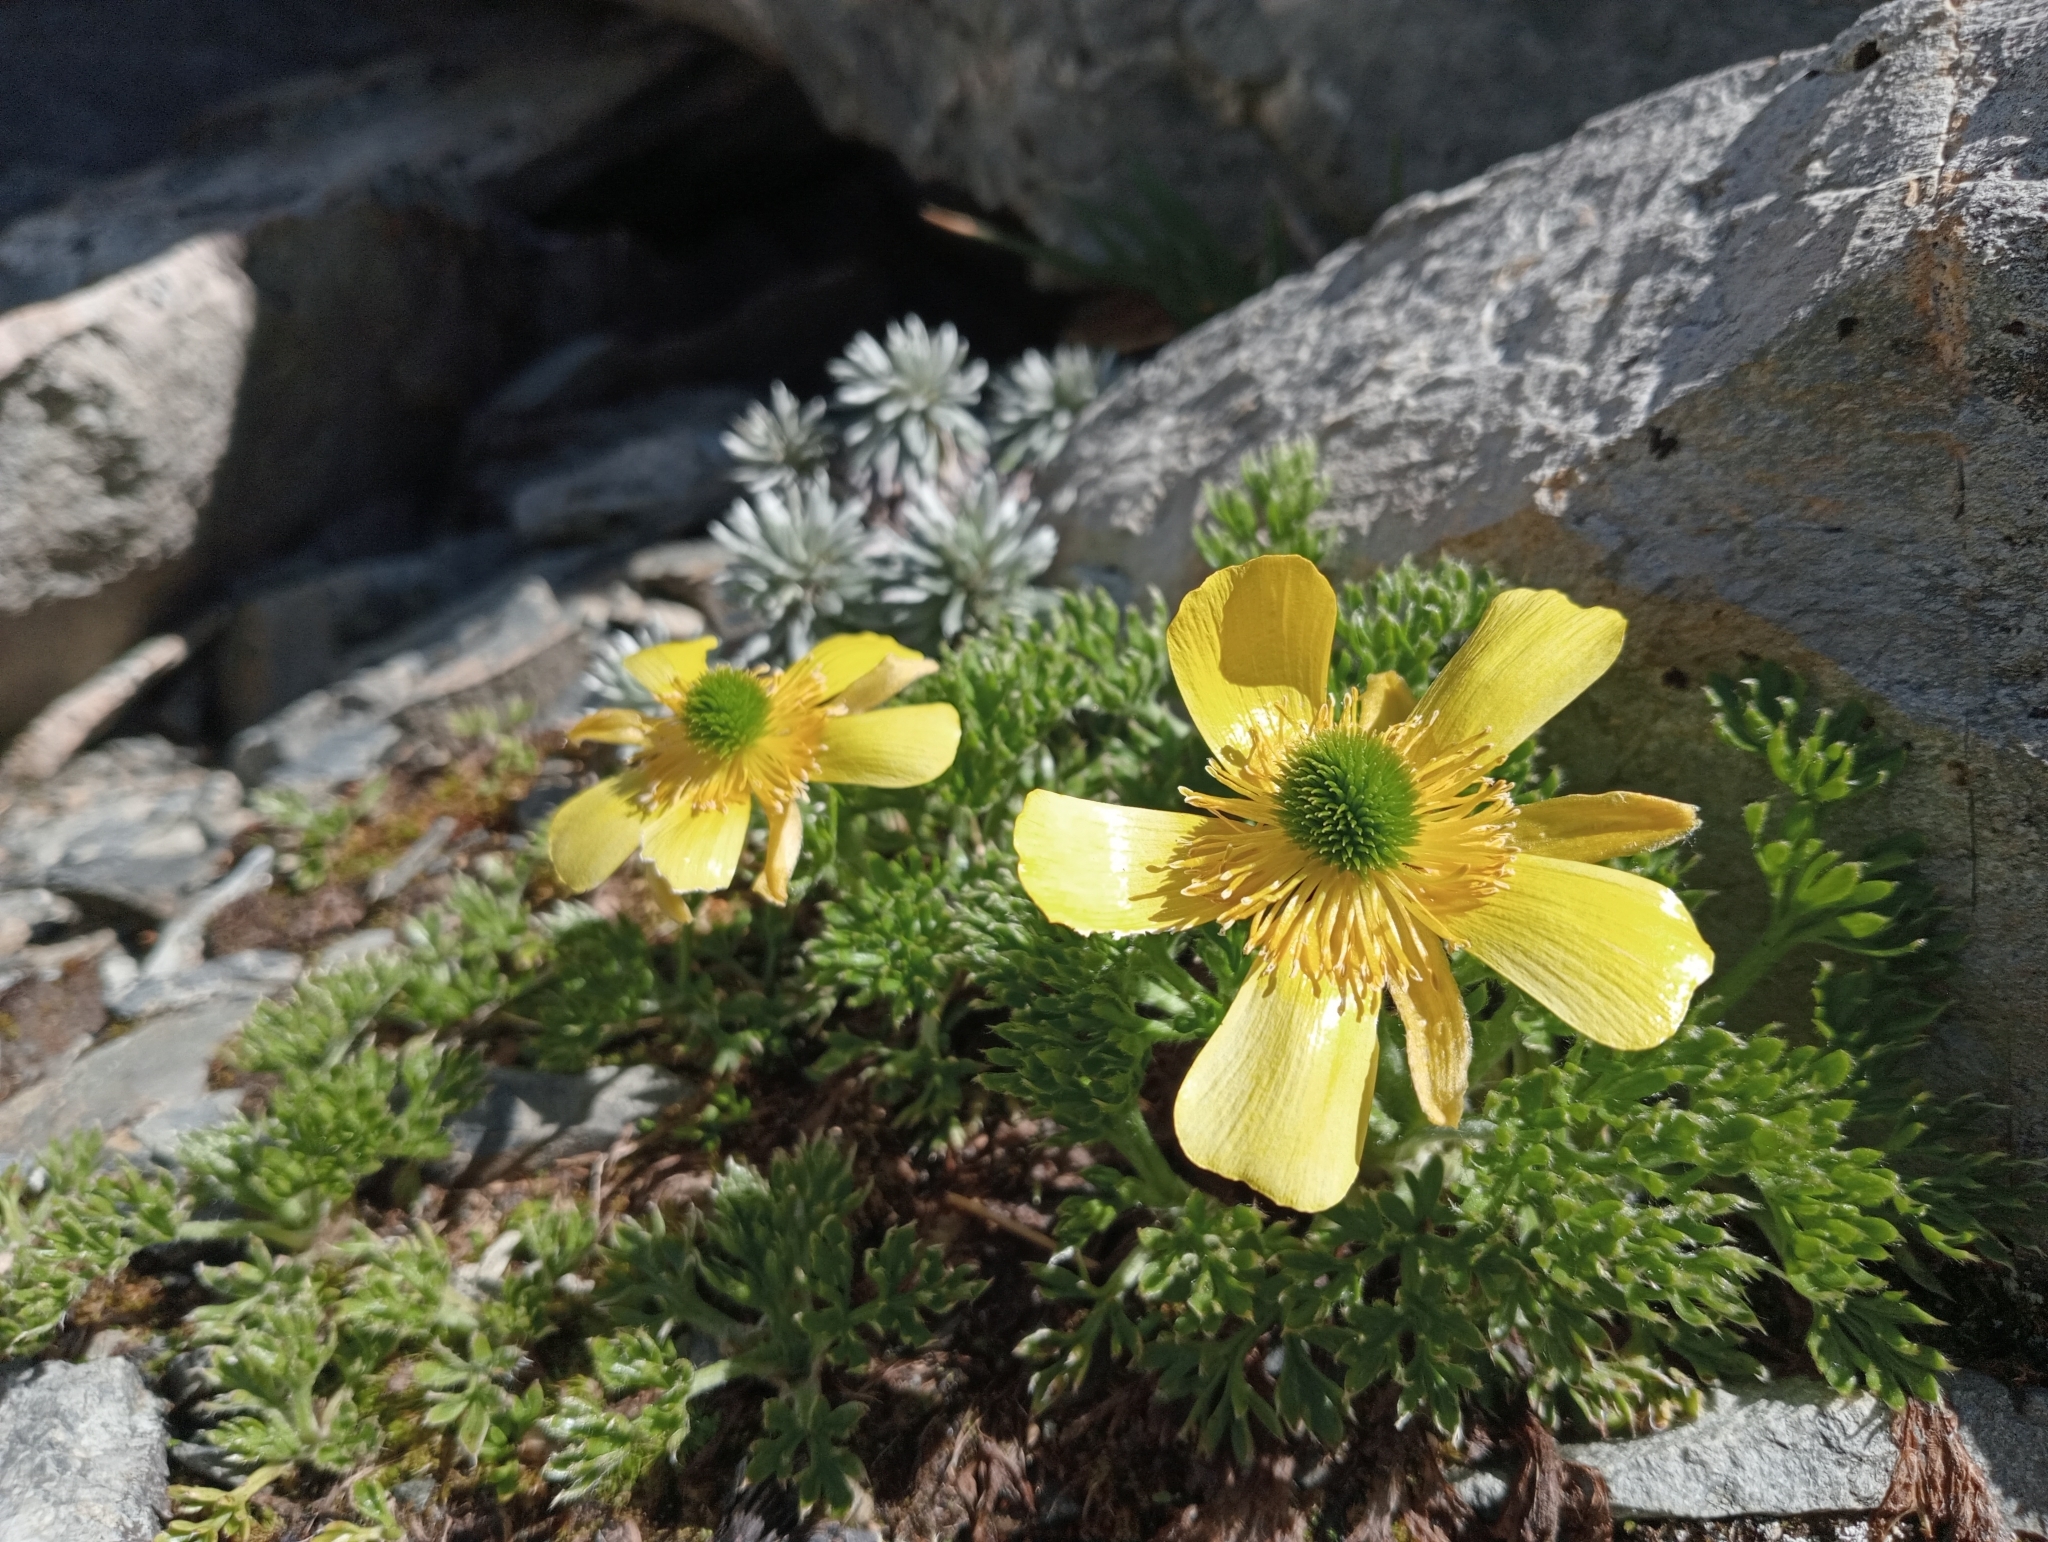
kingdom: Plantae
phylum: Tracheophyta
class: Magnoliopsida
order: Ranunculales
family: Ranunculaceae
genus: Ranunculus
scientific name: Ranunculus sericophyllus
